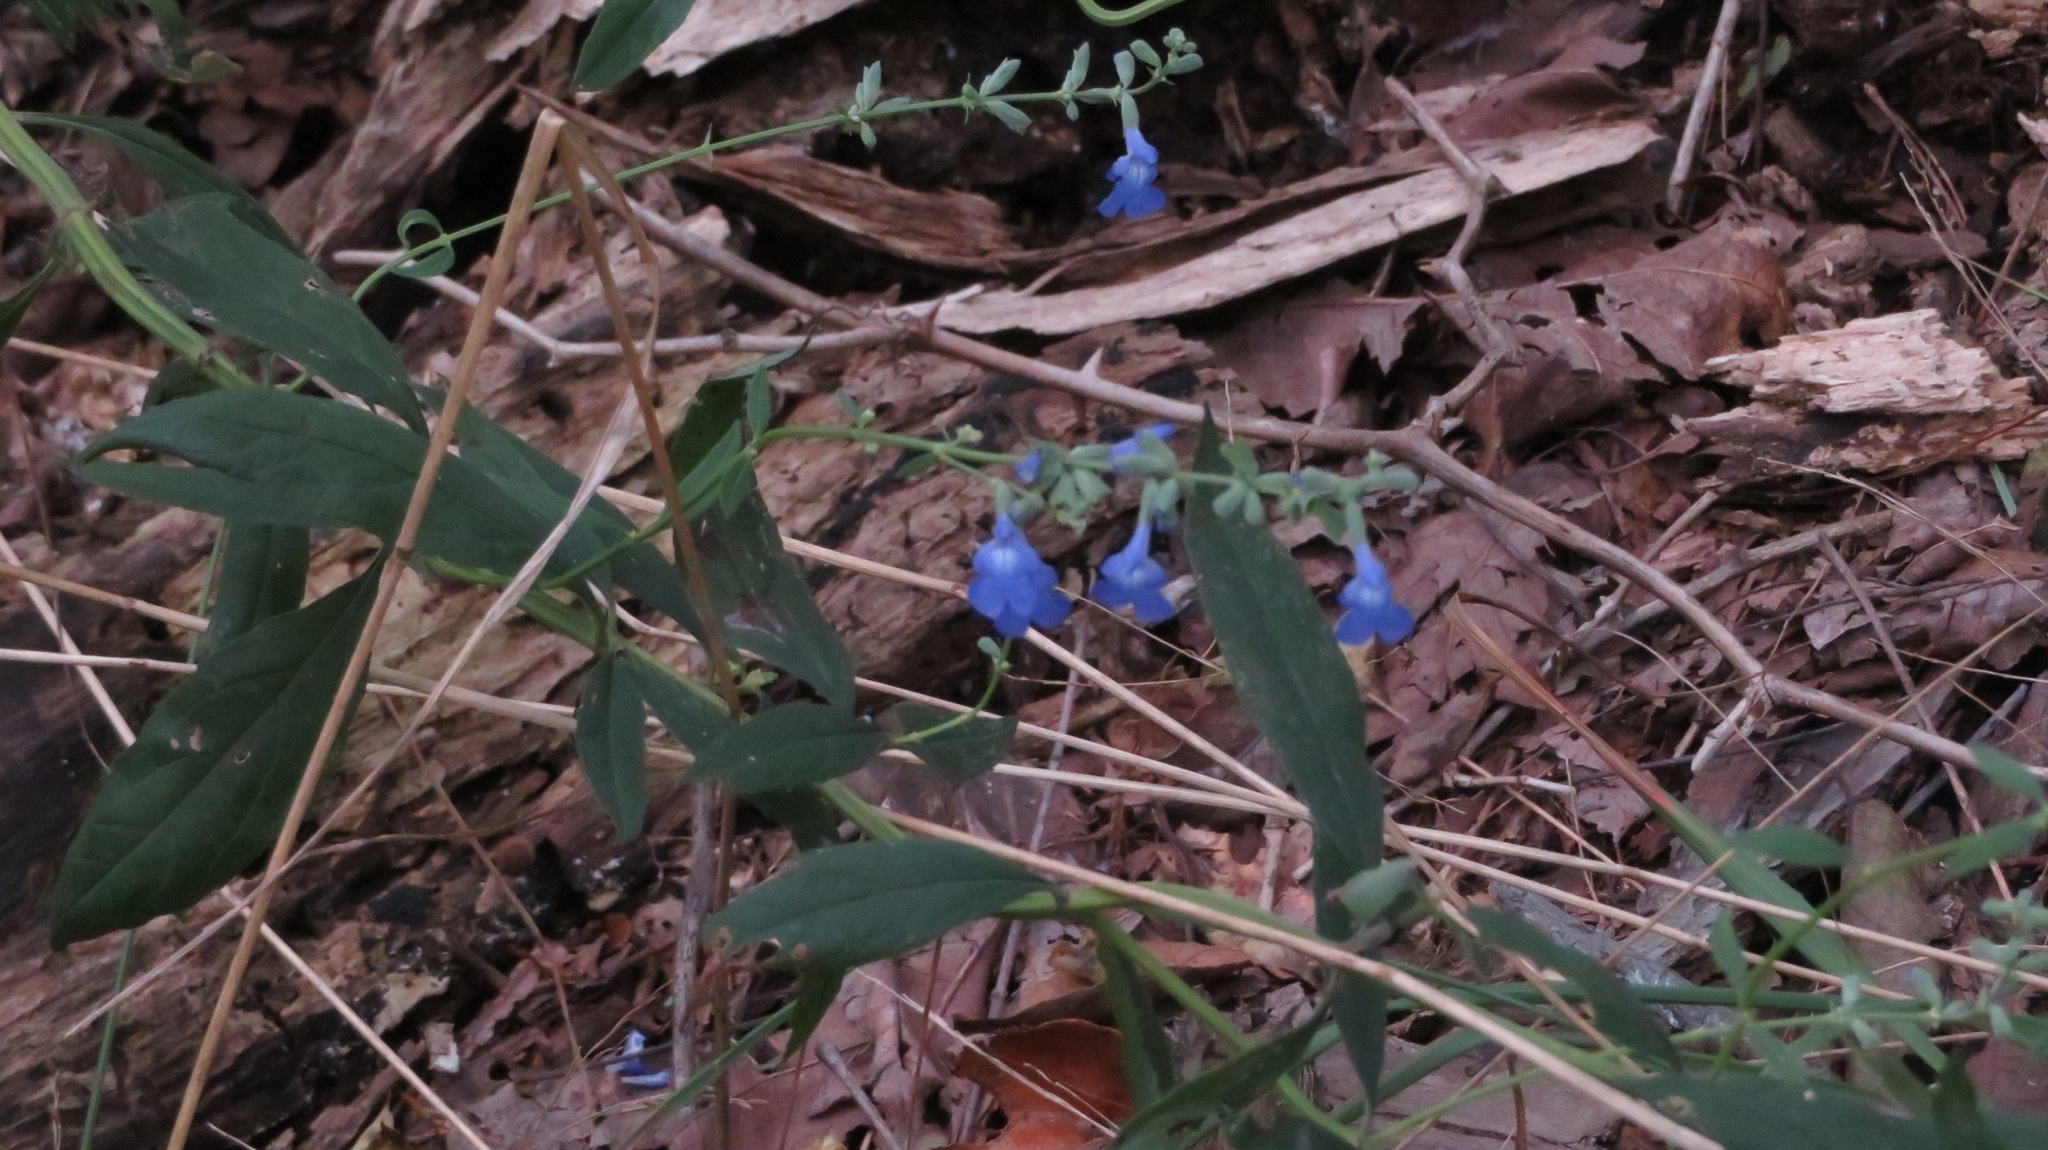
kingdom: Plantae
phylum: Tracheophyta
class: Magnoliopsida
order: Lamiales
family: Lamiaceae
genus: Salvia
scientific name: Salvia azurea
